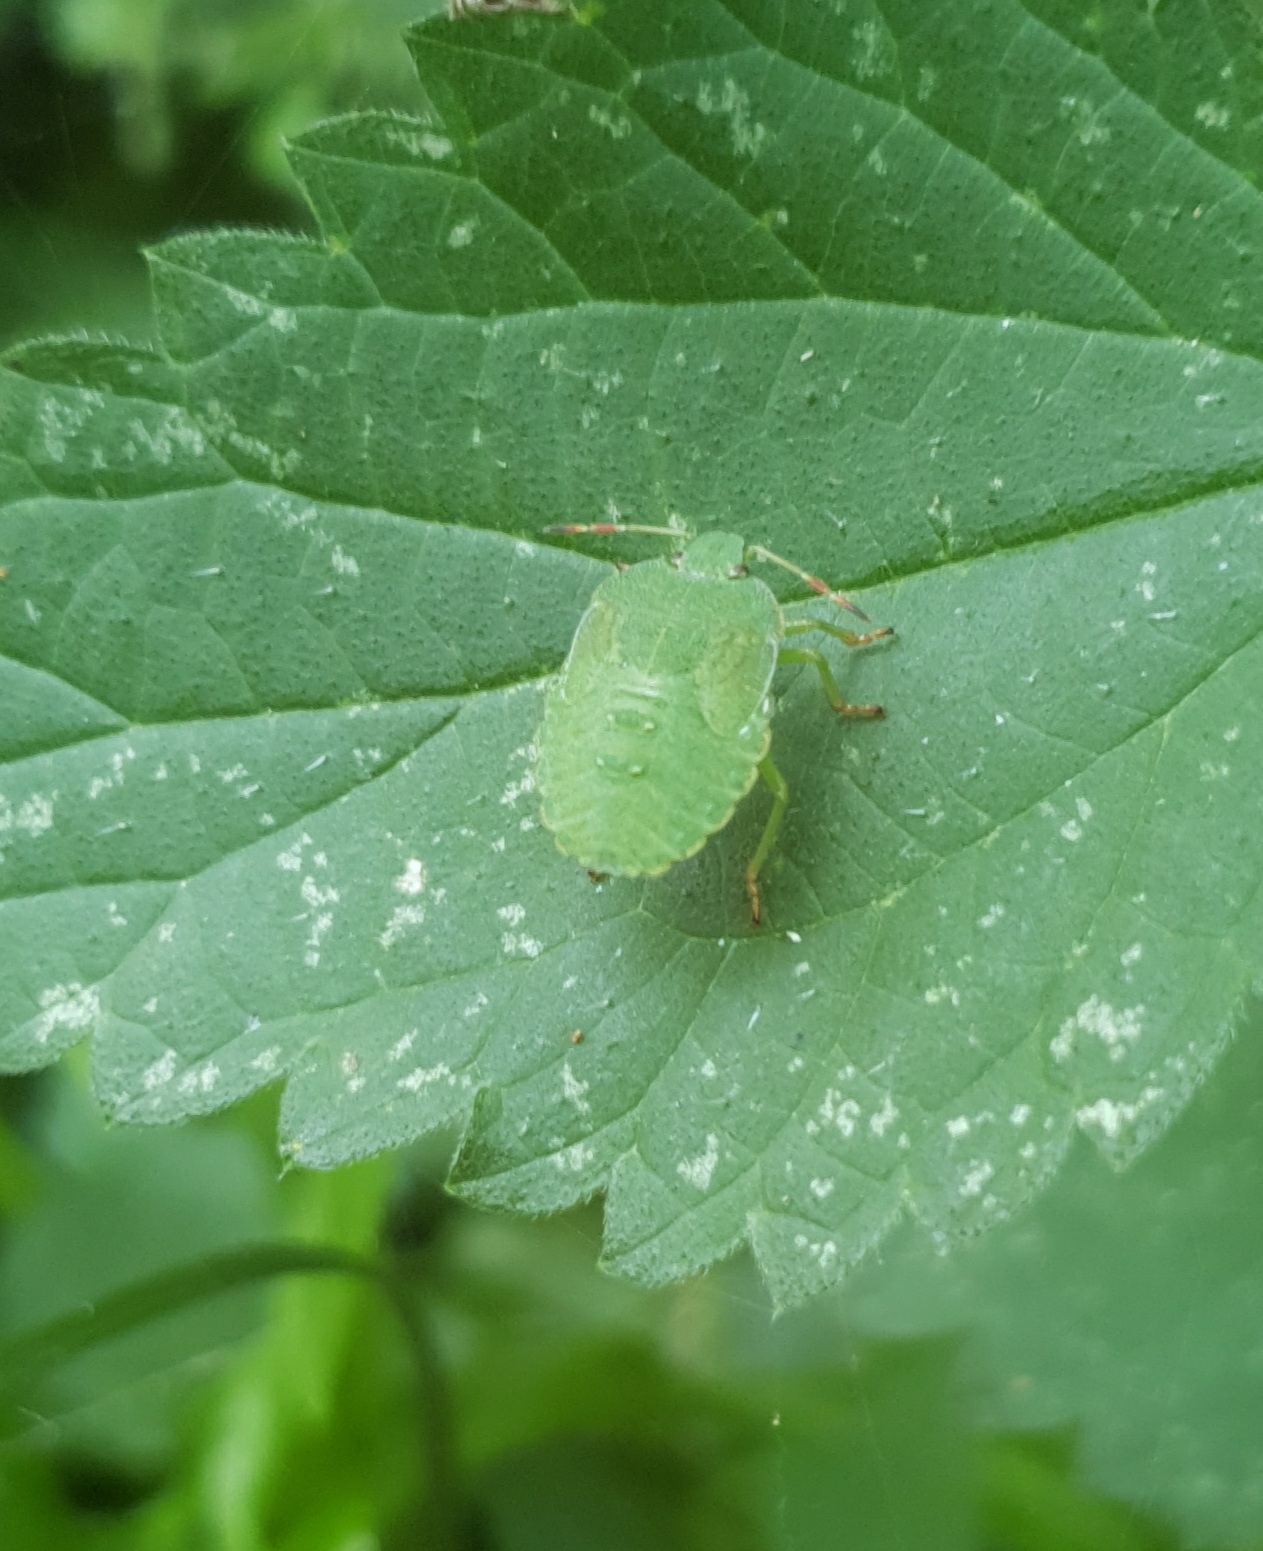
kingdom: Animalia
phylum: Arthropoda
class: Insecta
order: Hemiptera
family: Pentatomidae
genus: Palomena
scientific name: Palomena prasina
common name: Green shieldbug
